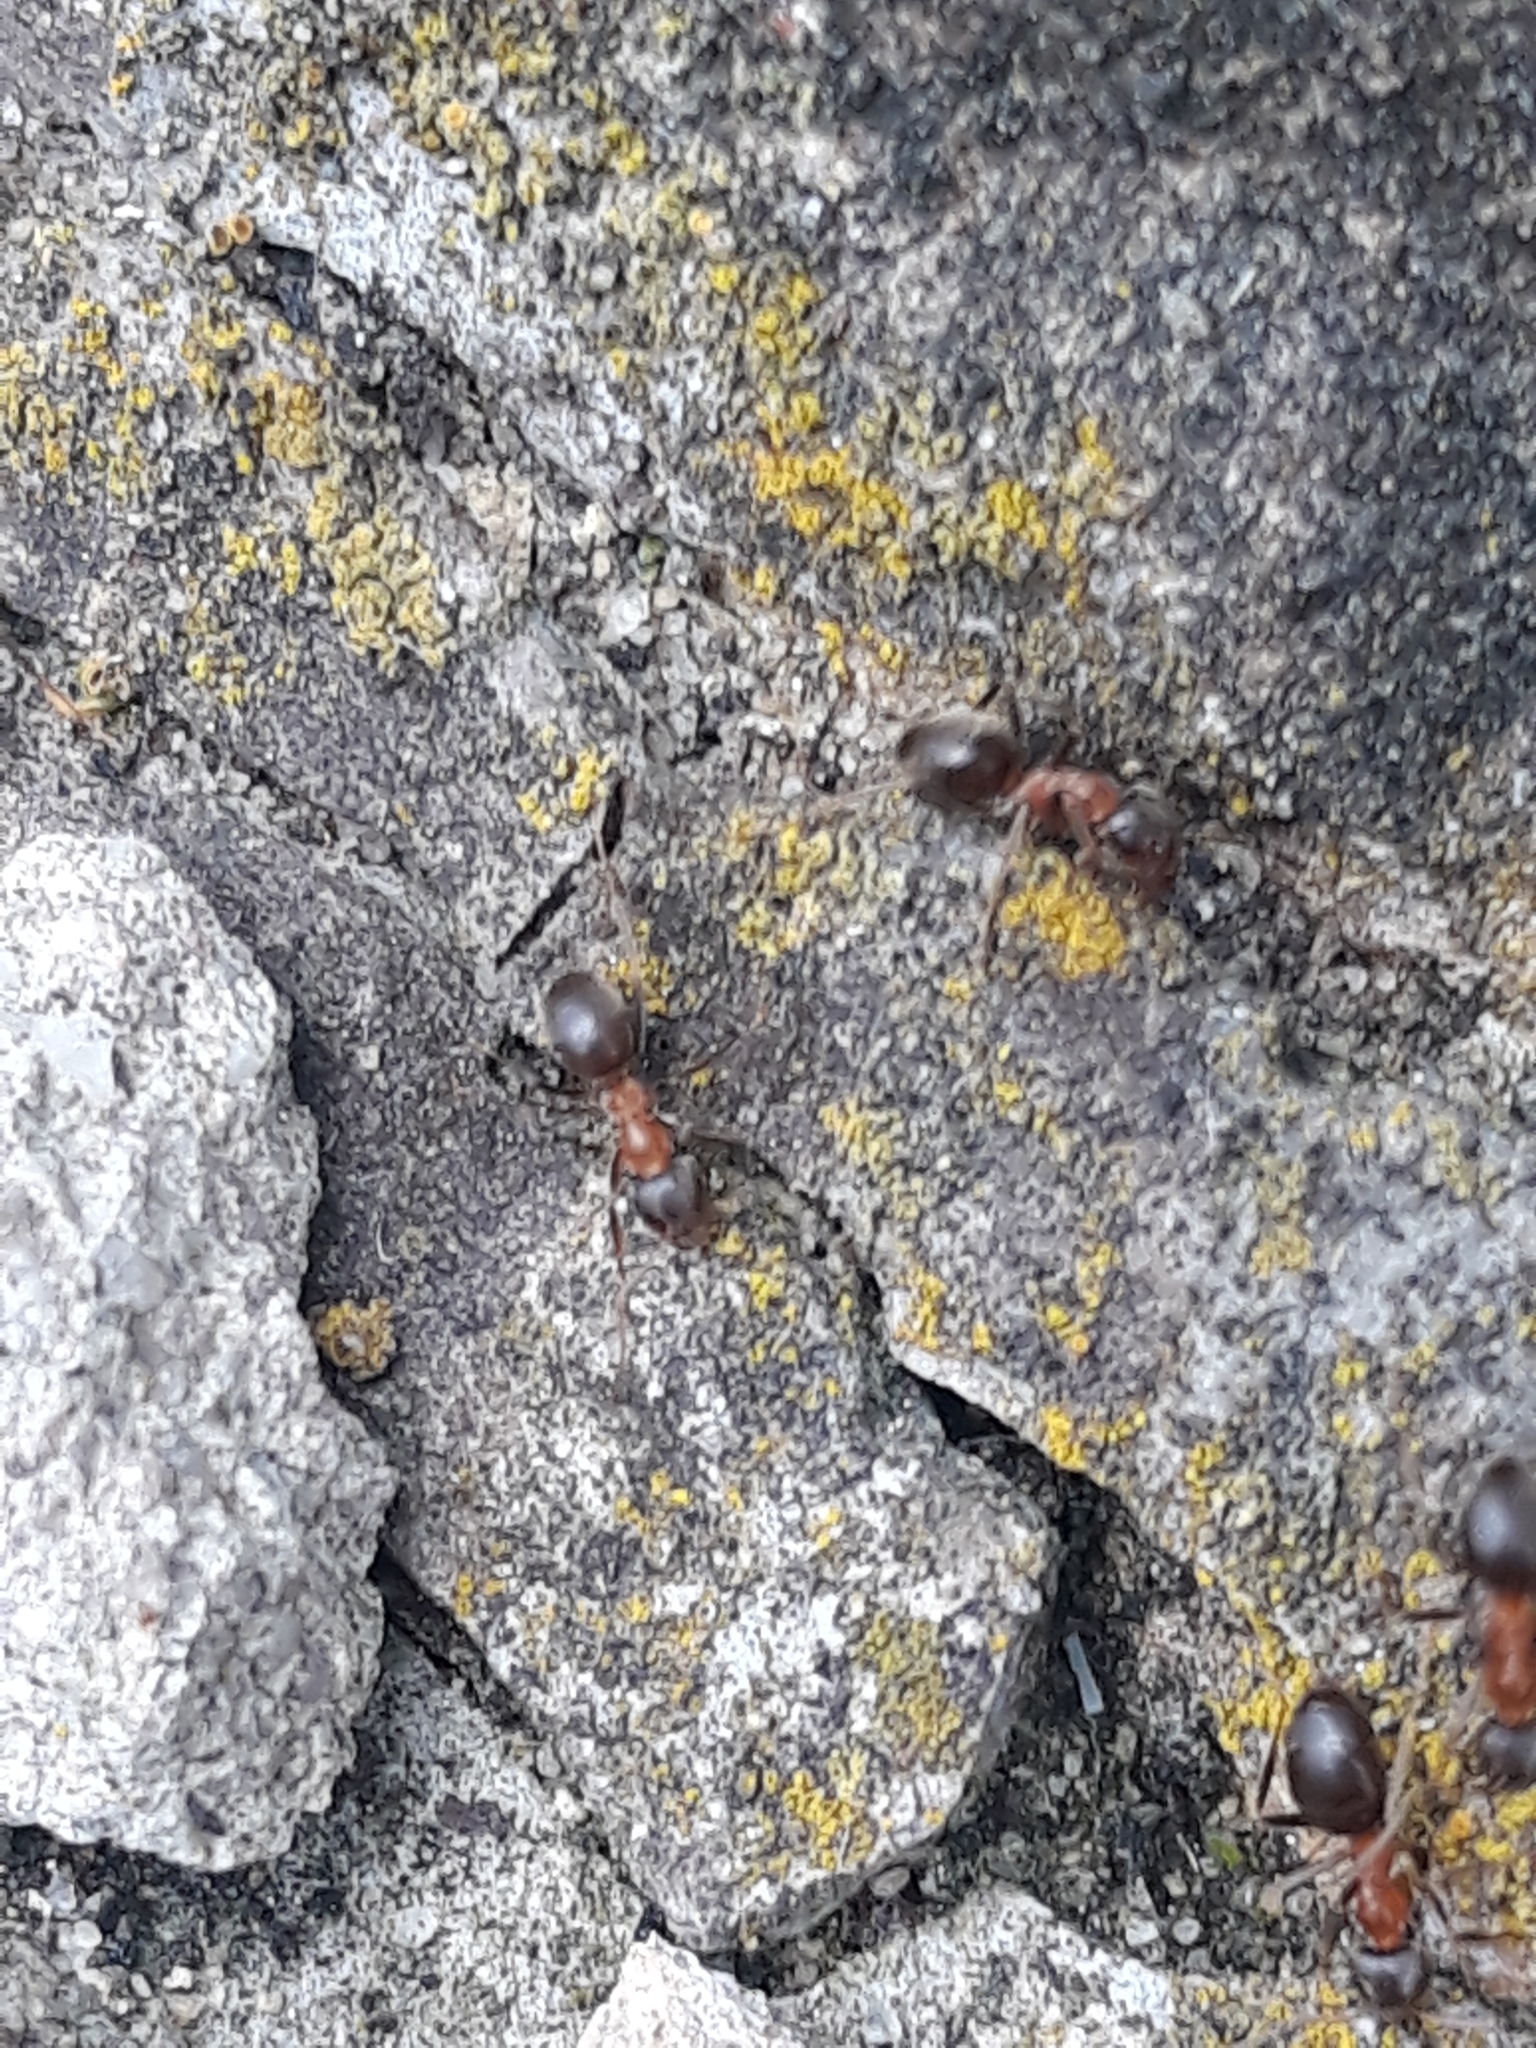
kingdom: Animalia
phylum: Arthropoda
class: Insecta
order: Hymenoptera
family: Formicidae
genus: Lasius
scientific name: Lasius emarginatus
